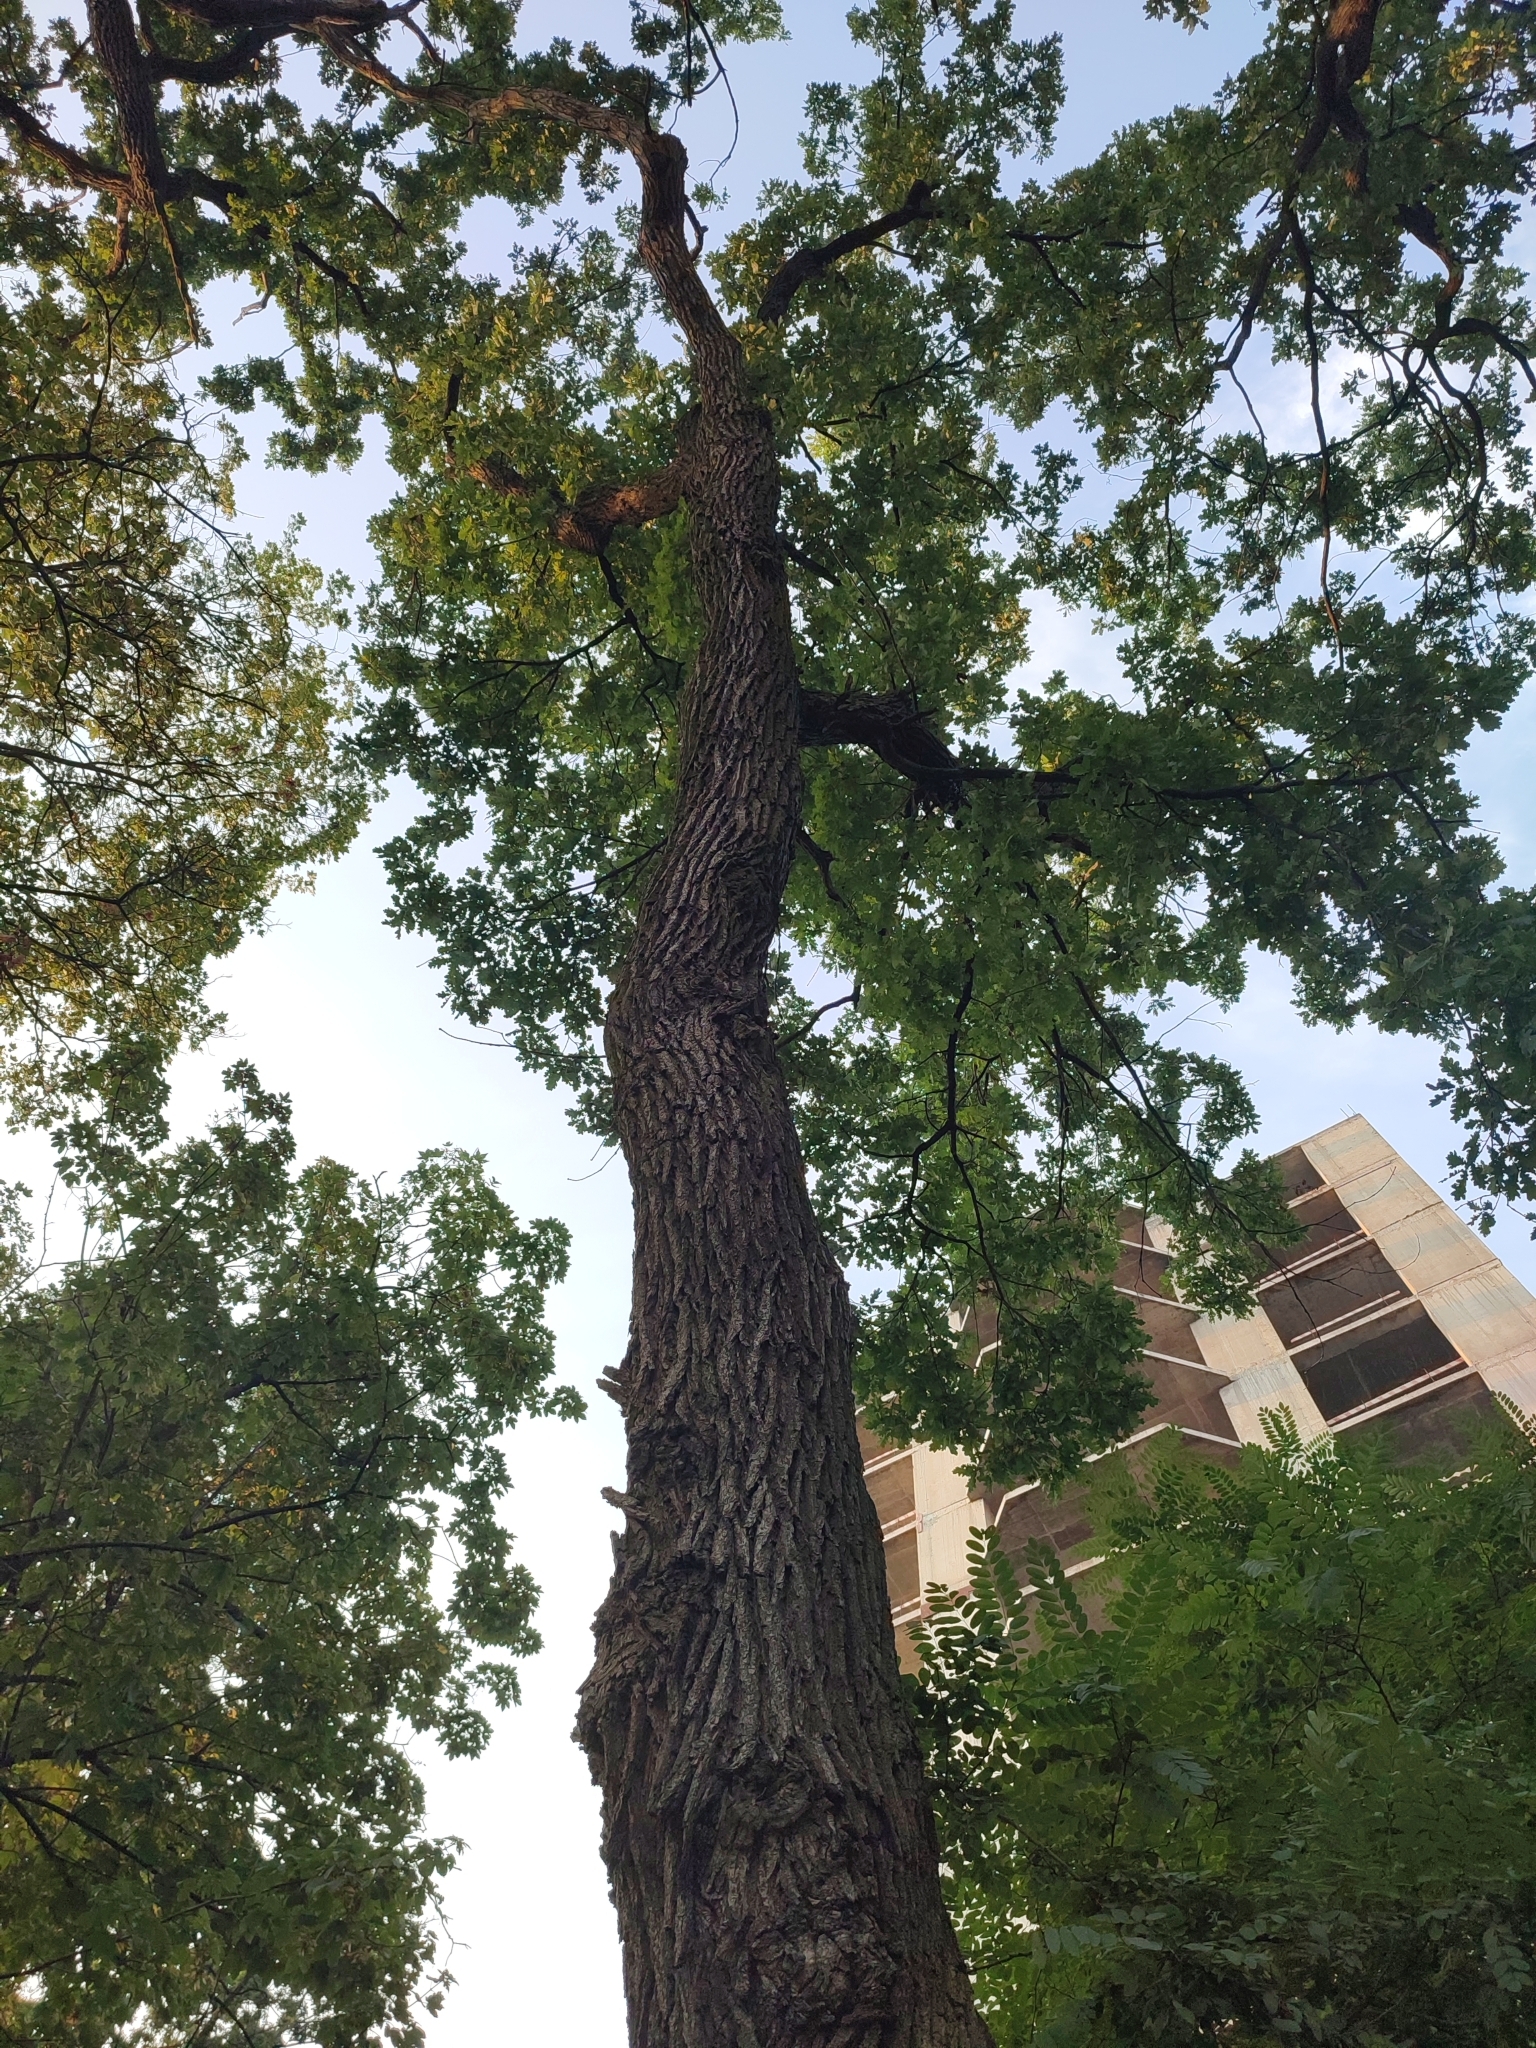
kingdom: Plantae
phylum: Tracheophyta
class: Magnoliopsida
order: Fagales
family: Fagaceae
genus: Quercus
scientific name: Quercus robur
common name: Pedunculate oak
